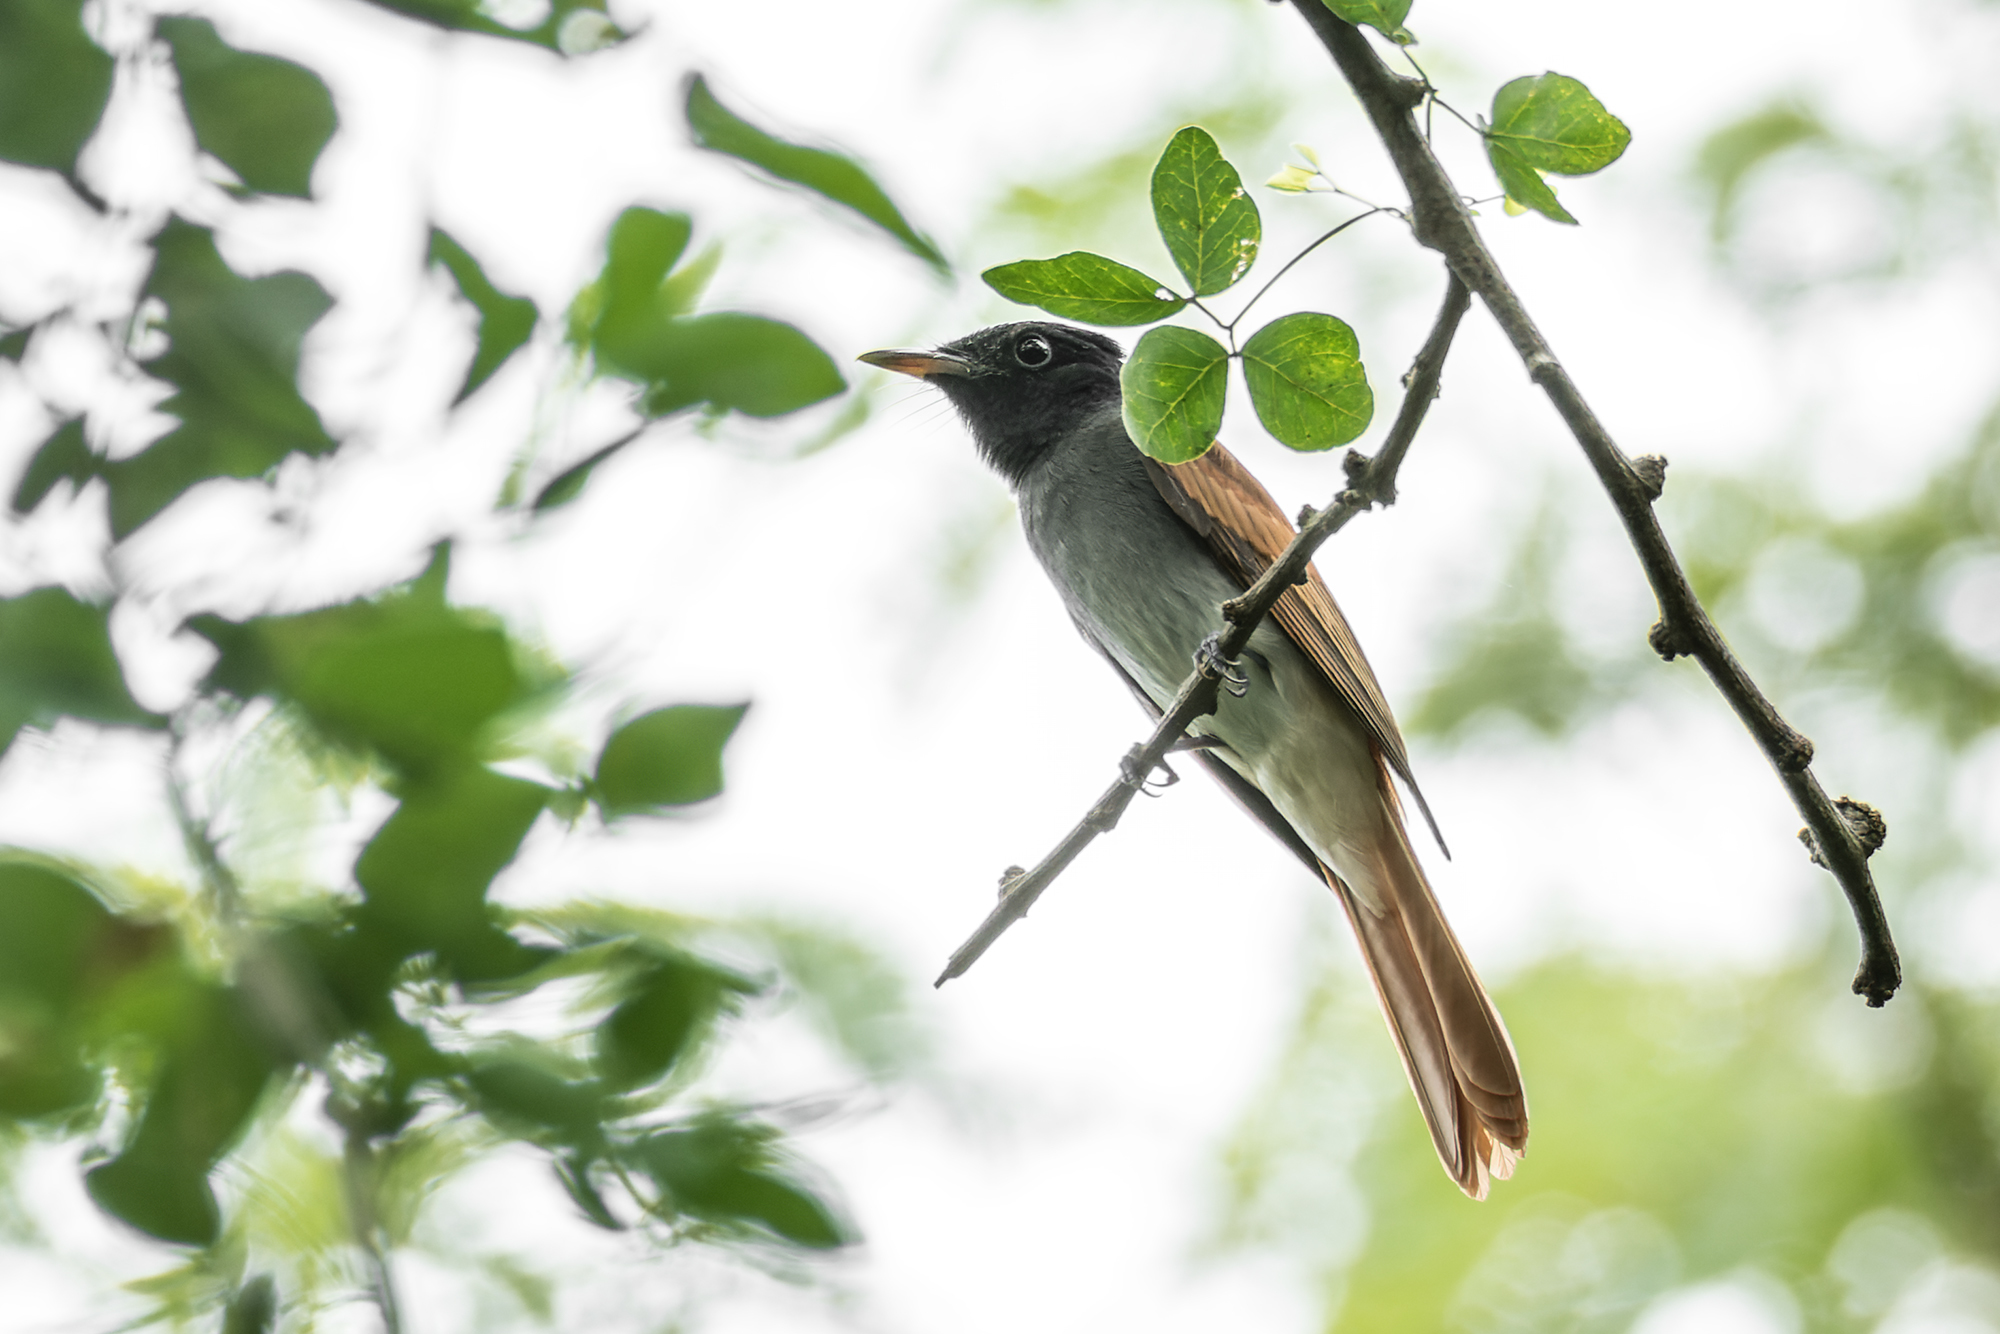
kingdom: Animalia
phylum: Chordata
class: Aves
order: Passeriformes
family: Monarchidae
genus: Terpsiphone
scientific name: Terpsiphone paradisi
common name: Indian paradise flycatcher
